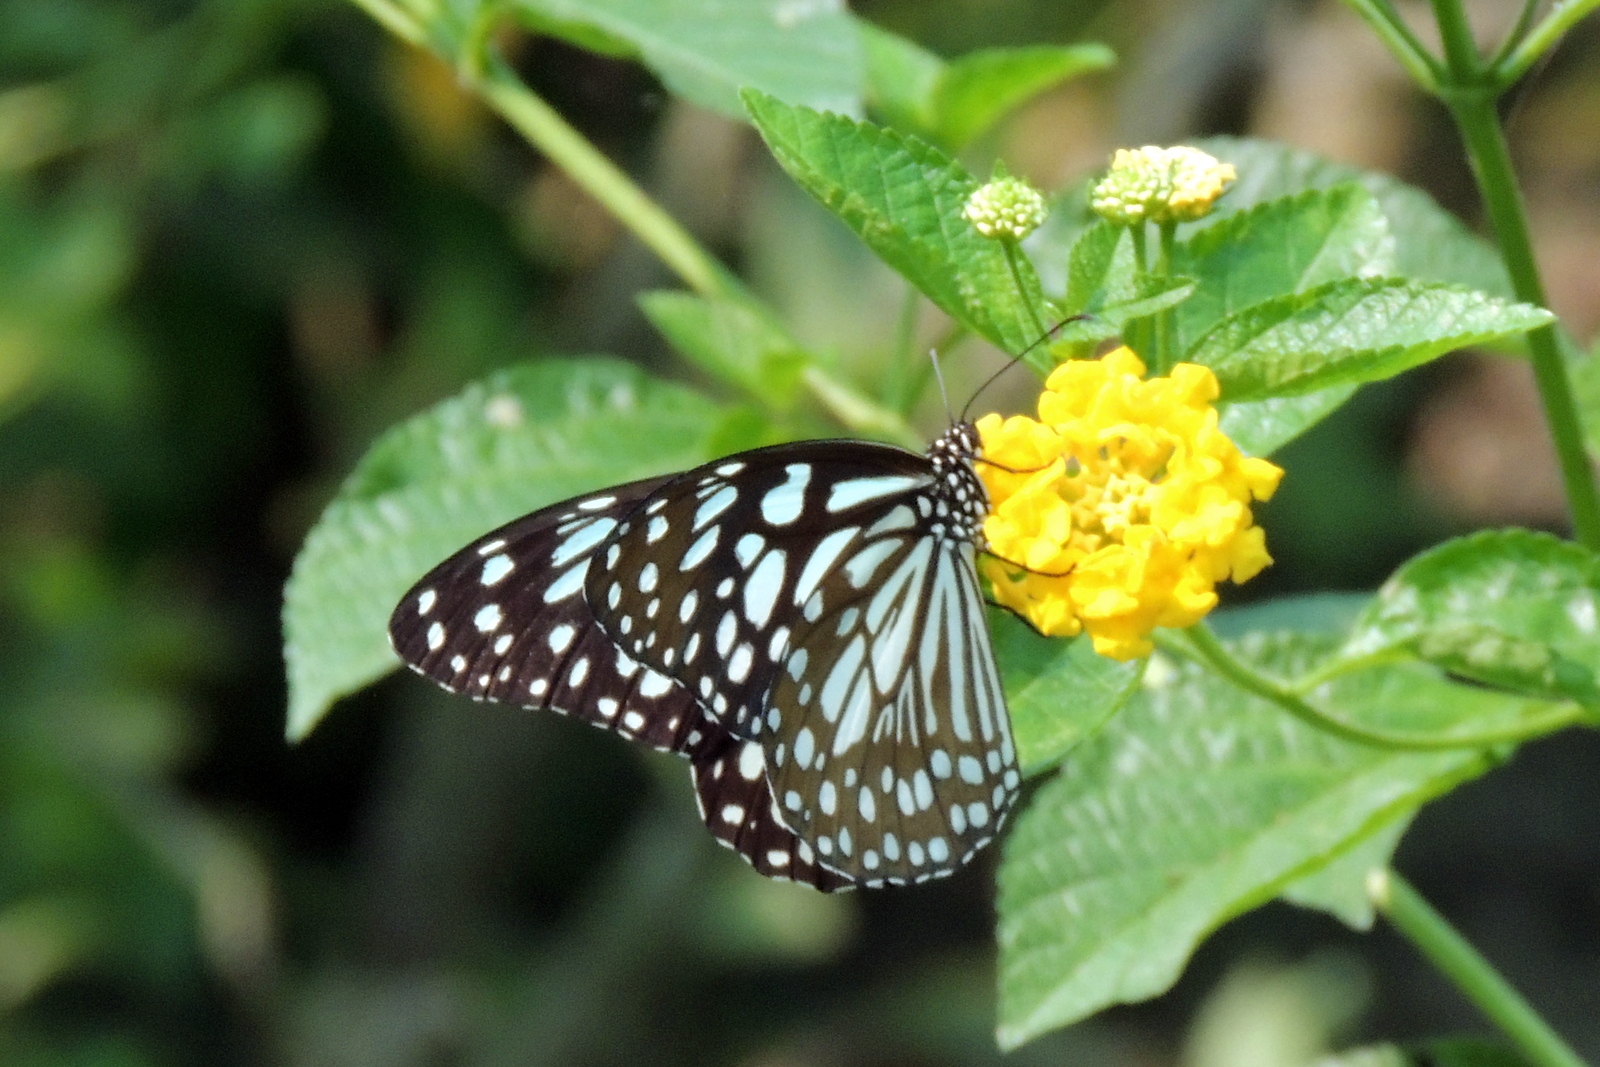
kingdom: Animalia
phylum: Arthropoda
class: Insecta
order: Lepidoptera
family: Nymphalidae
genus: Tirumala
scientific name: Tirumala limniace
